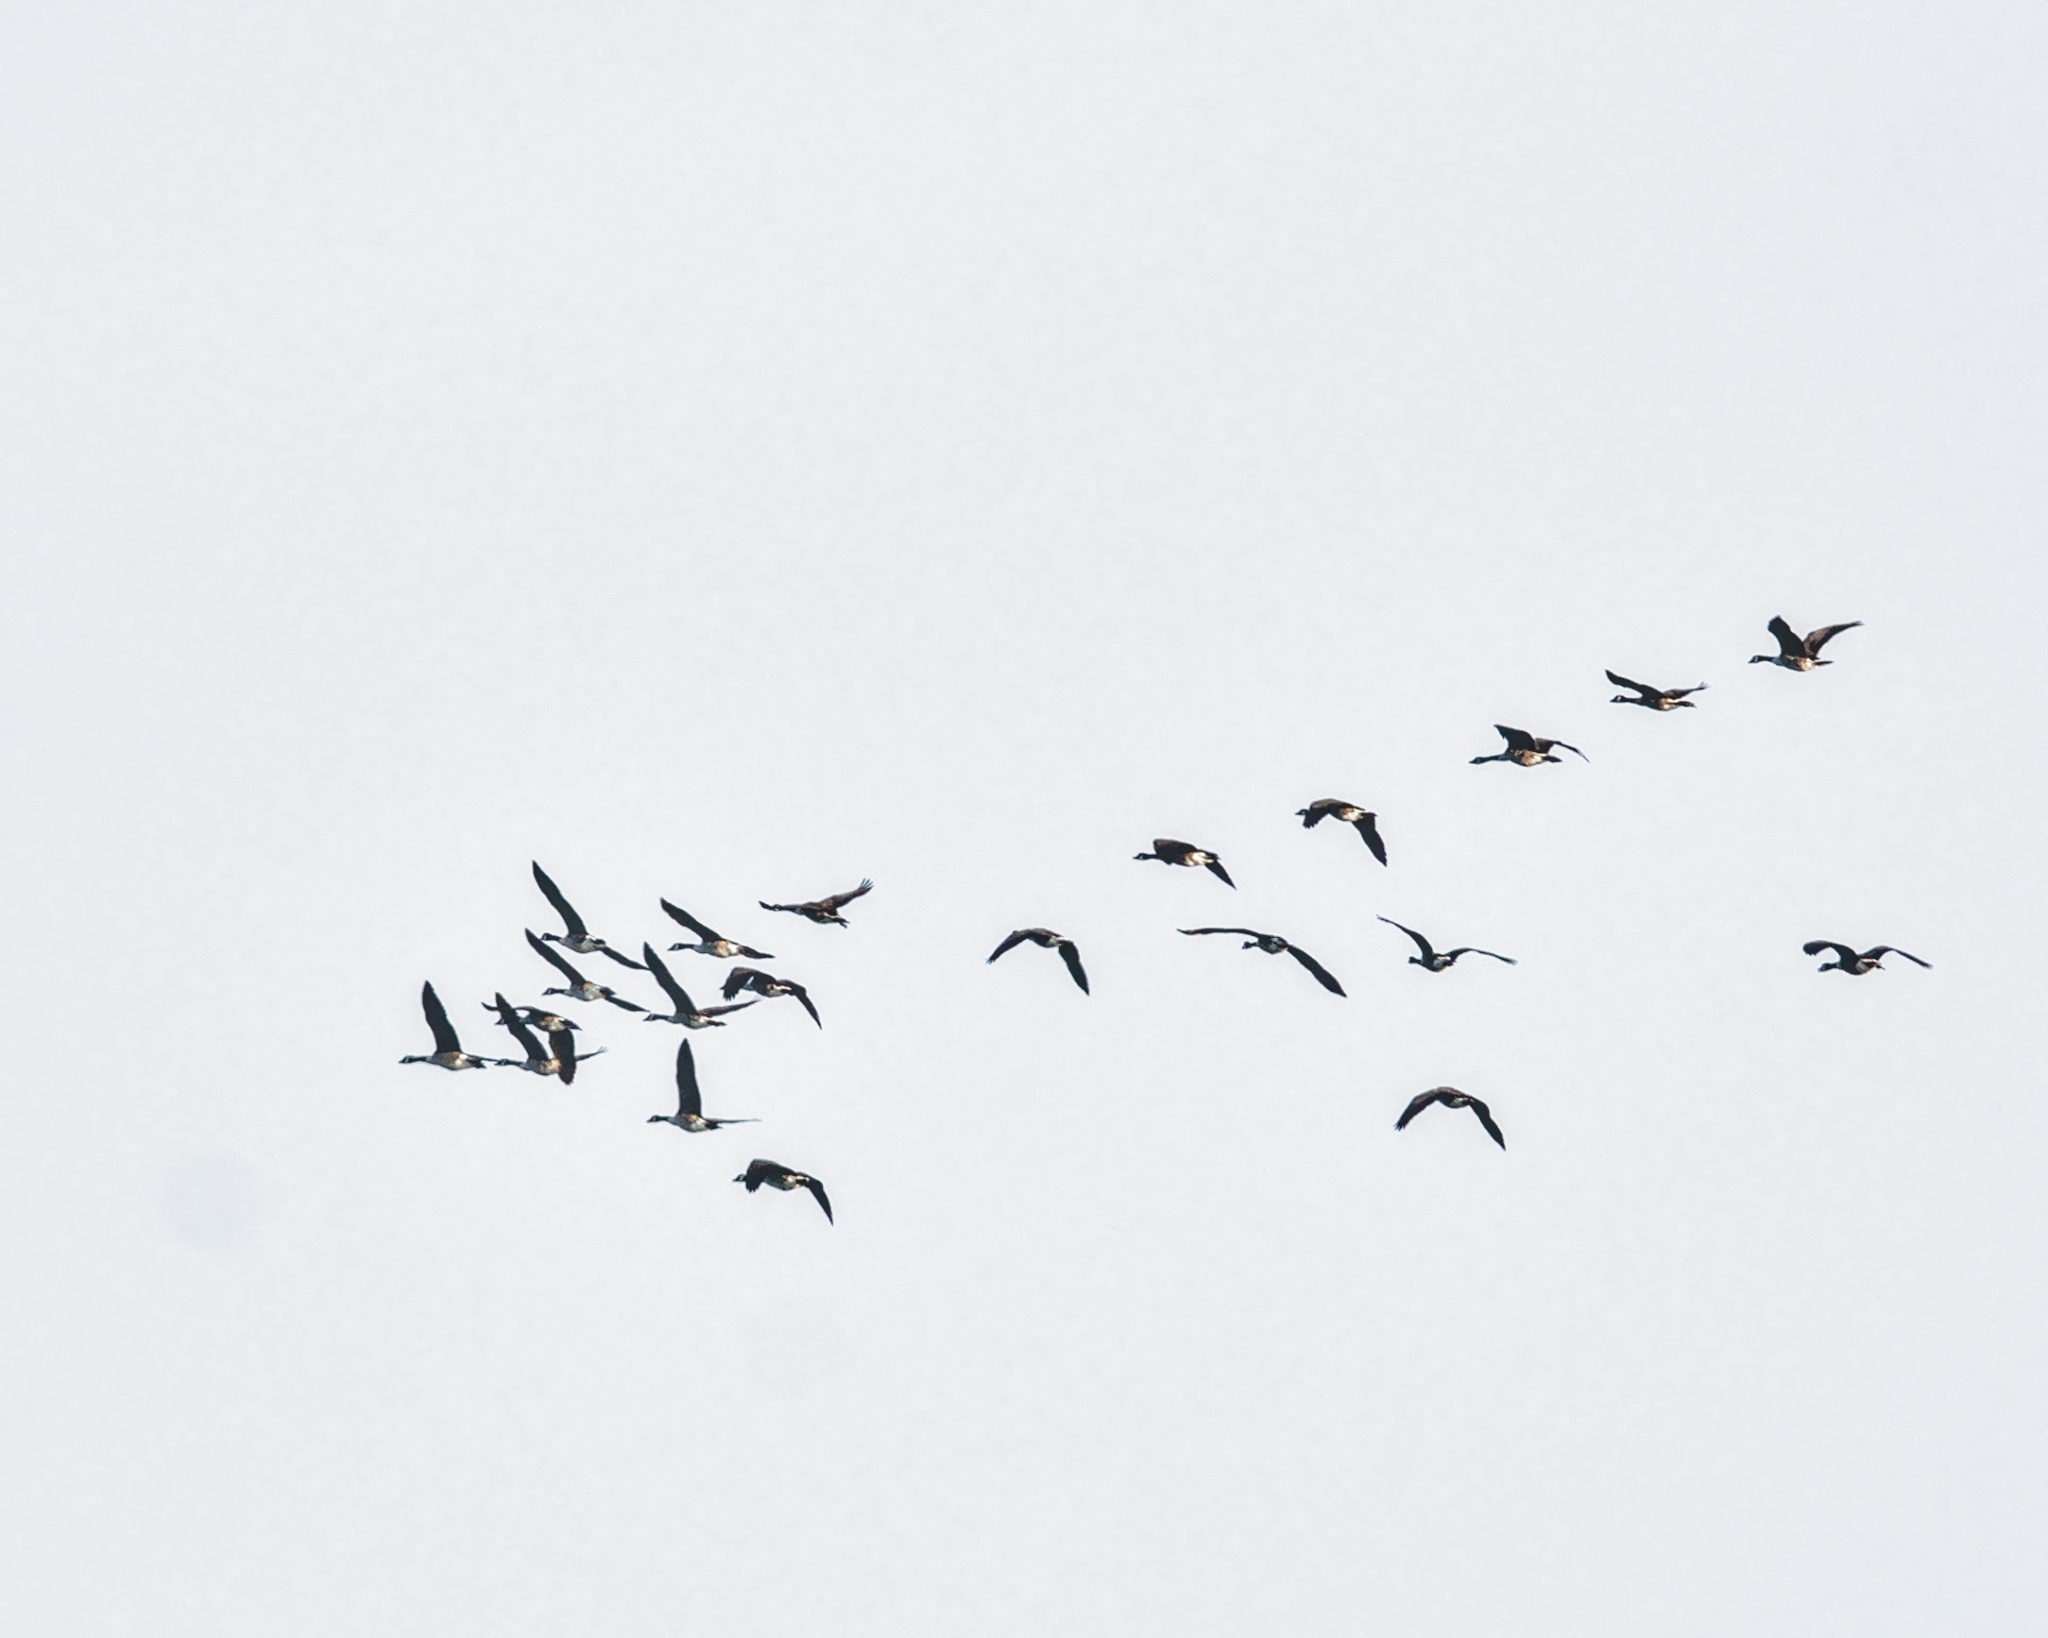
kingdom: Animalia
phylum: Chordata
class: Aves
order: Anseriformes
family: Anatidae
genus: Branta
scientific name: Branta canadensis
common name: Canada goose
